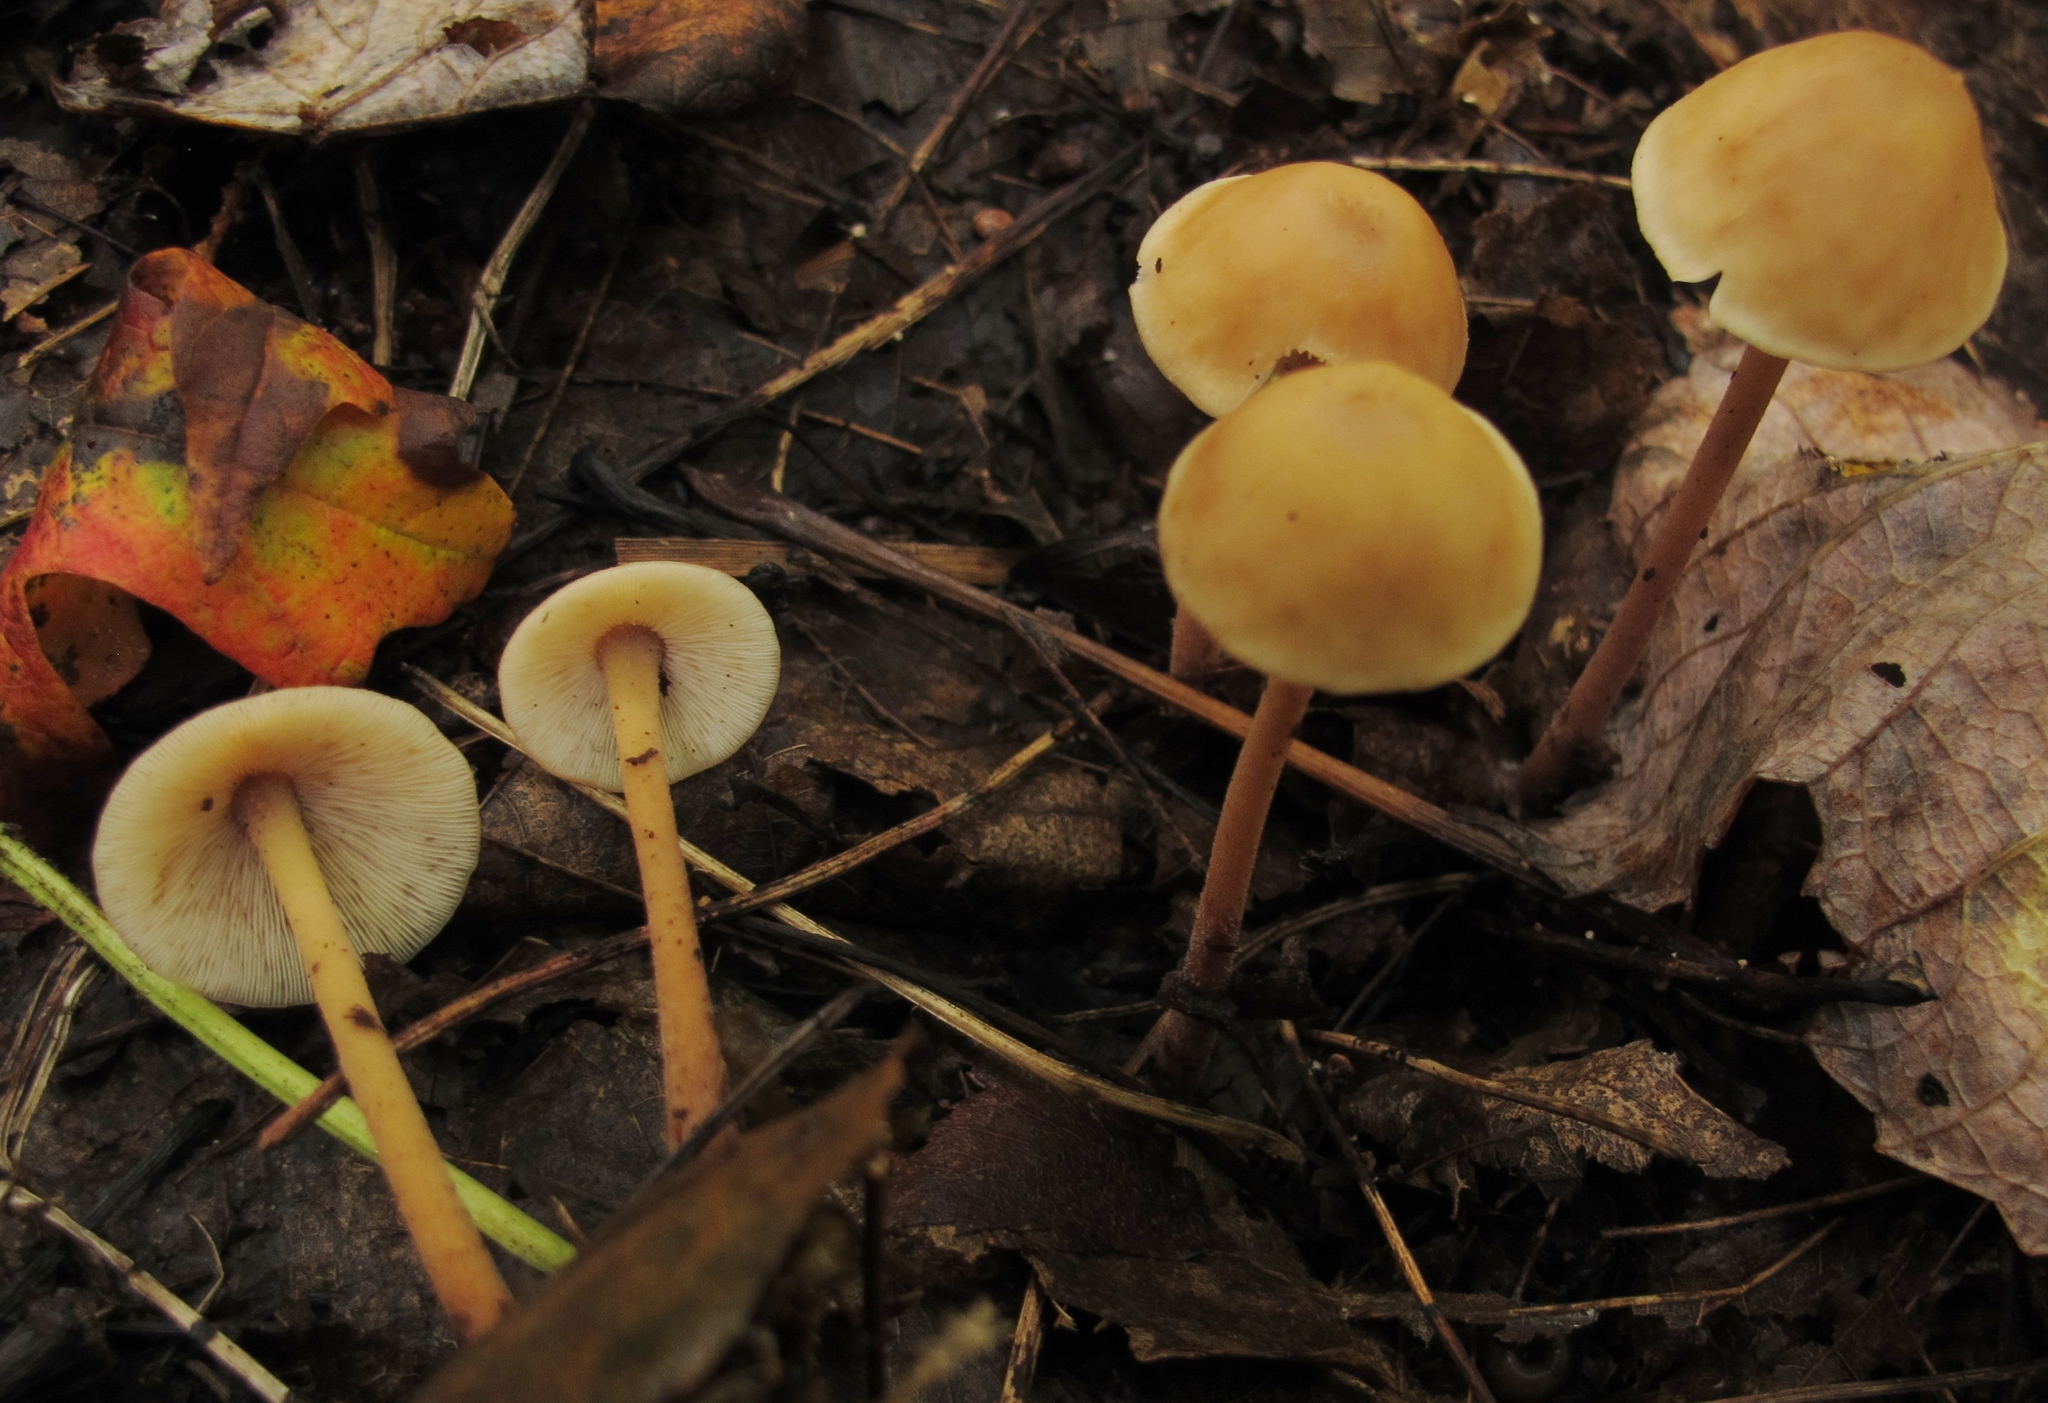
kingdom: Fungi
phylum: Basidiomycota
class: Agaricomycetes
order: Agaricales
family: Omphalotaceae
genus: Collybiopsis
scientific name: Collybiopsis confluens
